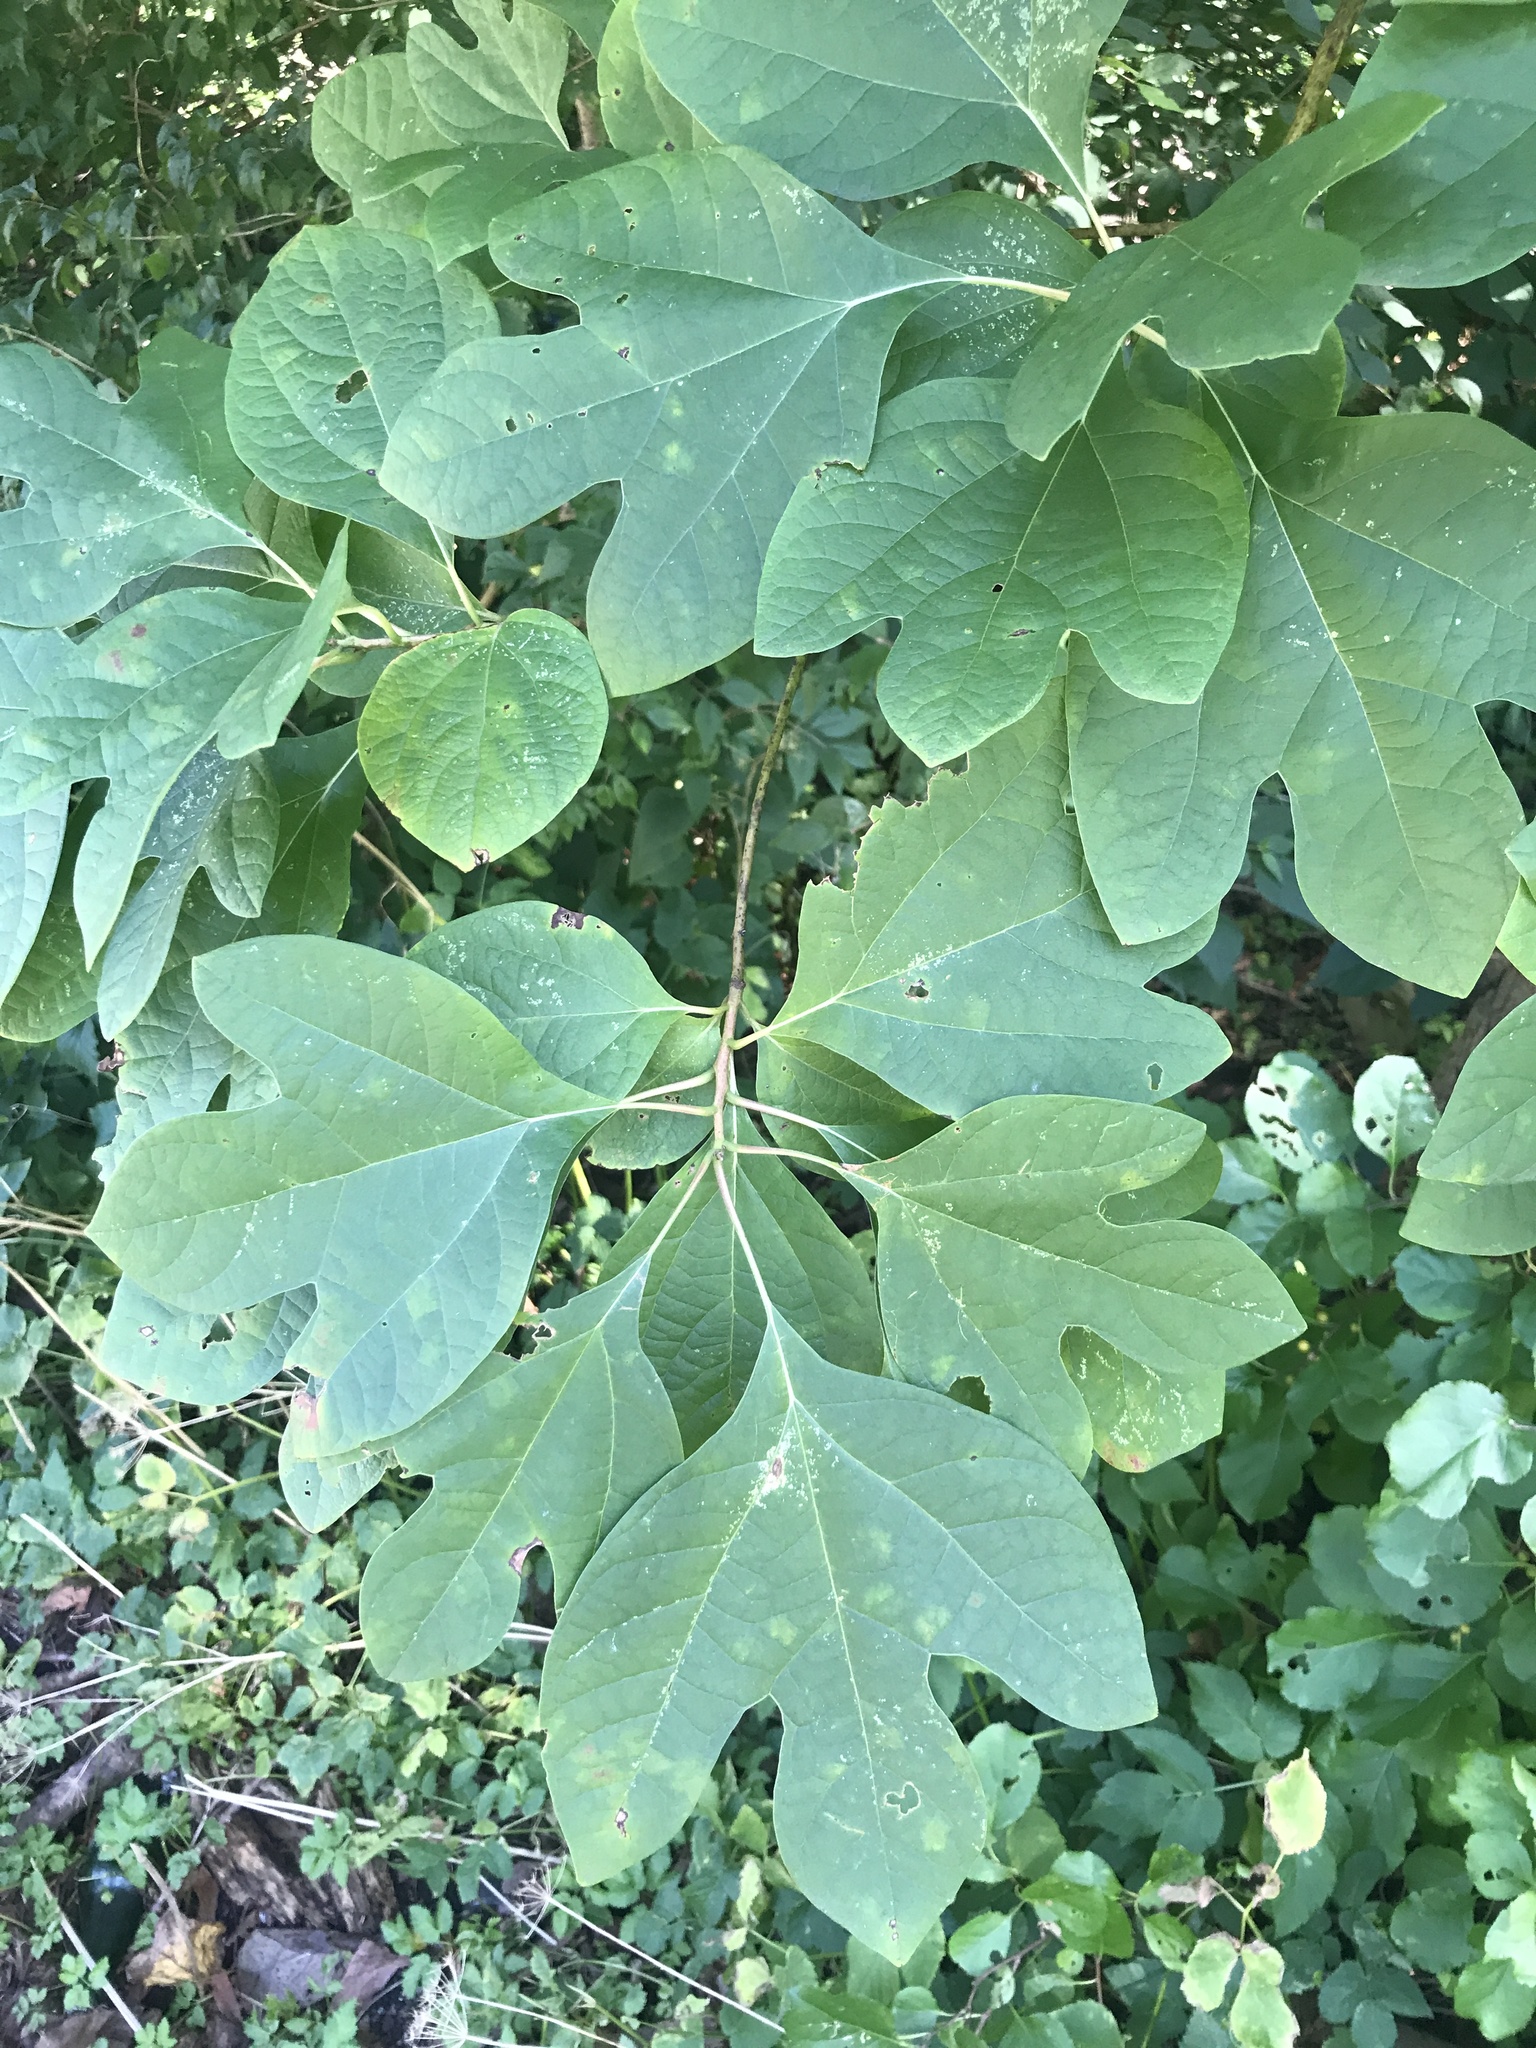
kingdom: Plantae
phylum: Tracheophyta
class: Magnoliopsida
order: Laurales
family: Lauraceae
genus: Sassafras
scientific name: Sassafras albidum
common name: Sassafras
